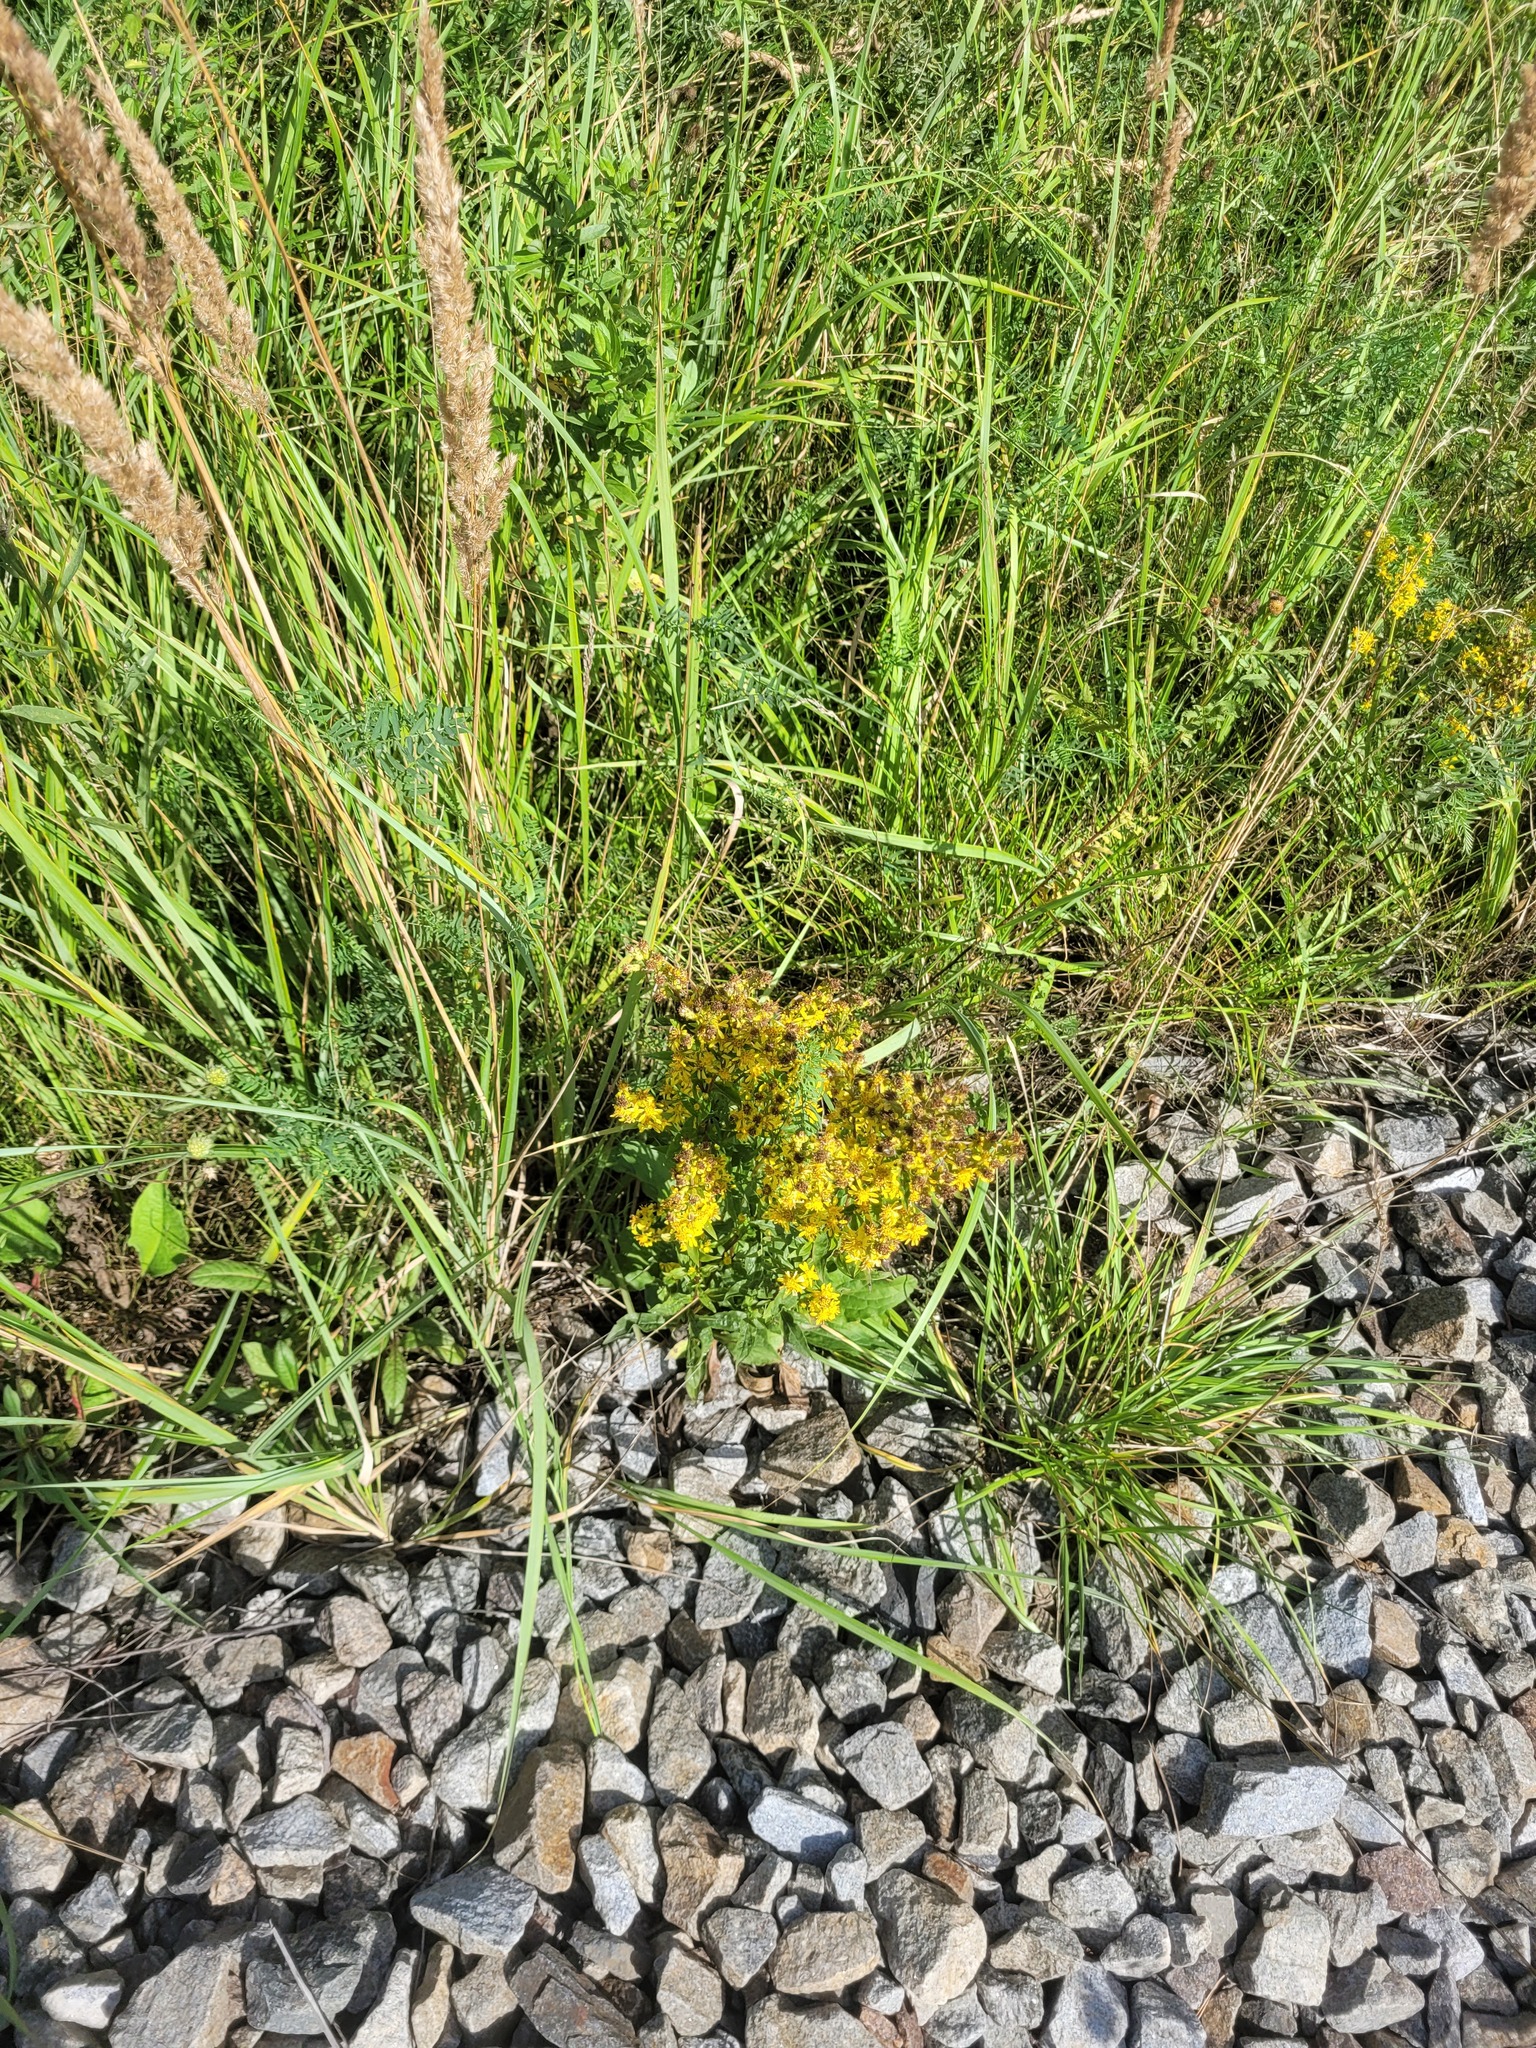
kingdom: Plantae
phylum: Tracheophyta
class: Magnoliopsida
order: Asterales
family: Asteraceae
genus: Solidago
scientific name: Solidago virgaurea
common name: Goldenrod
